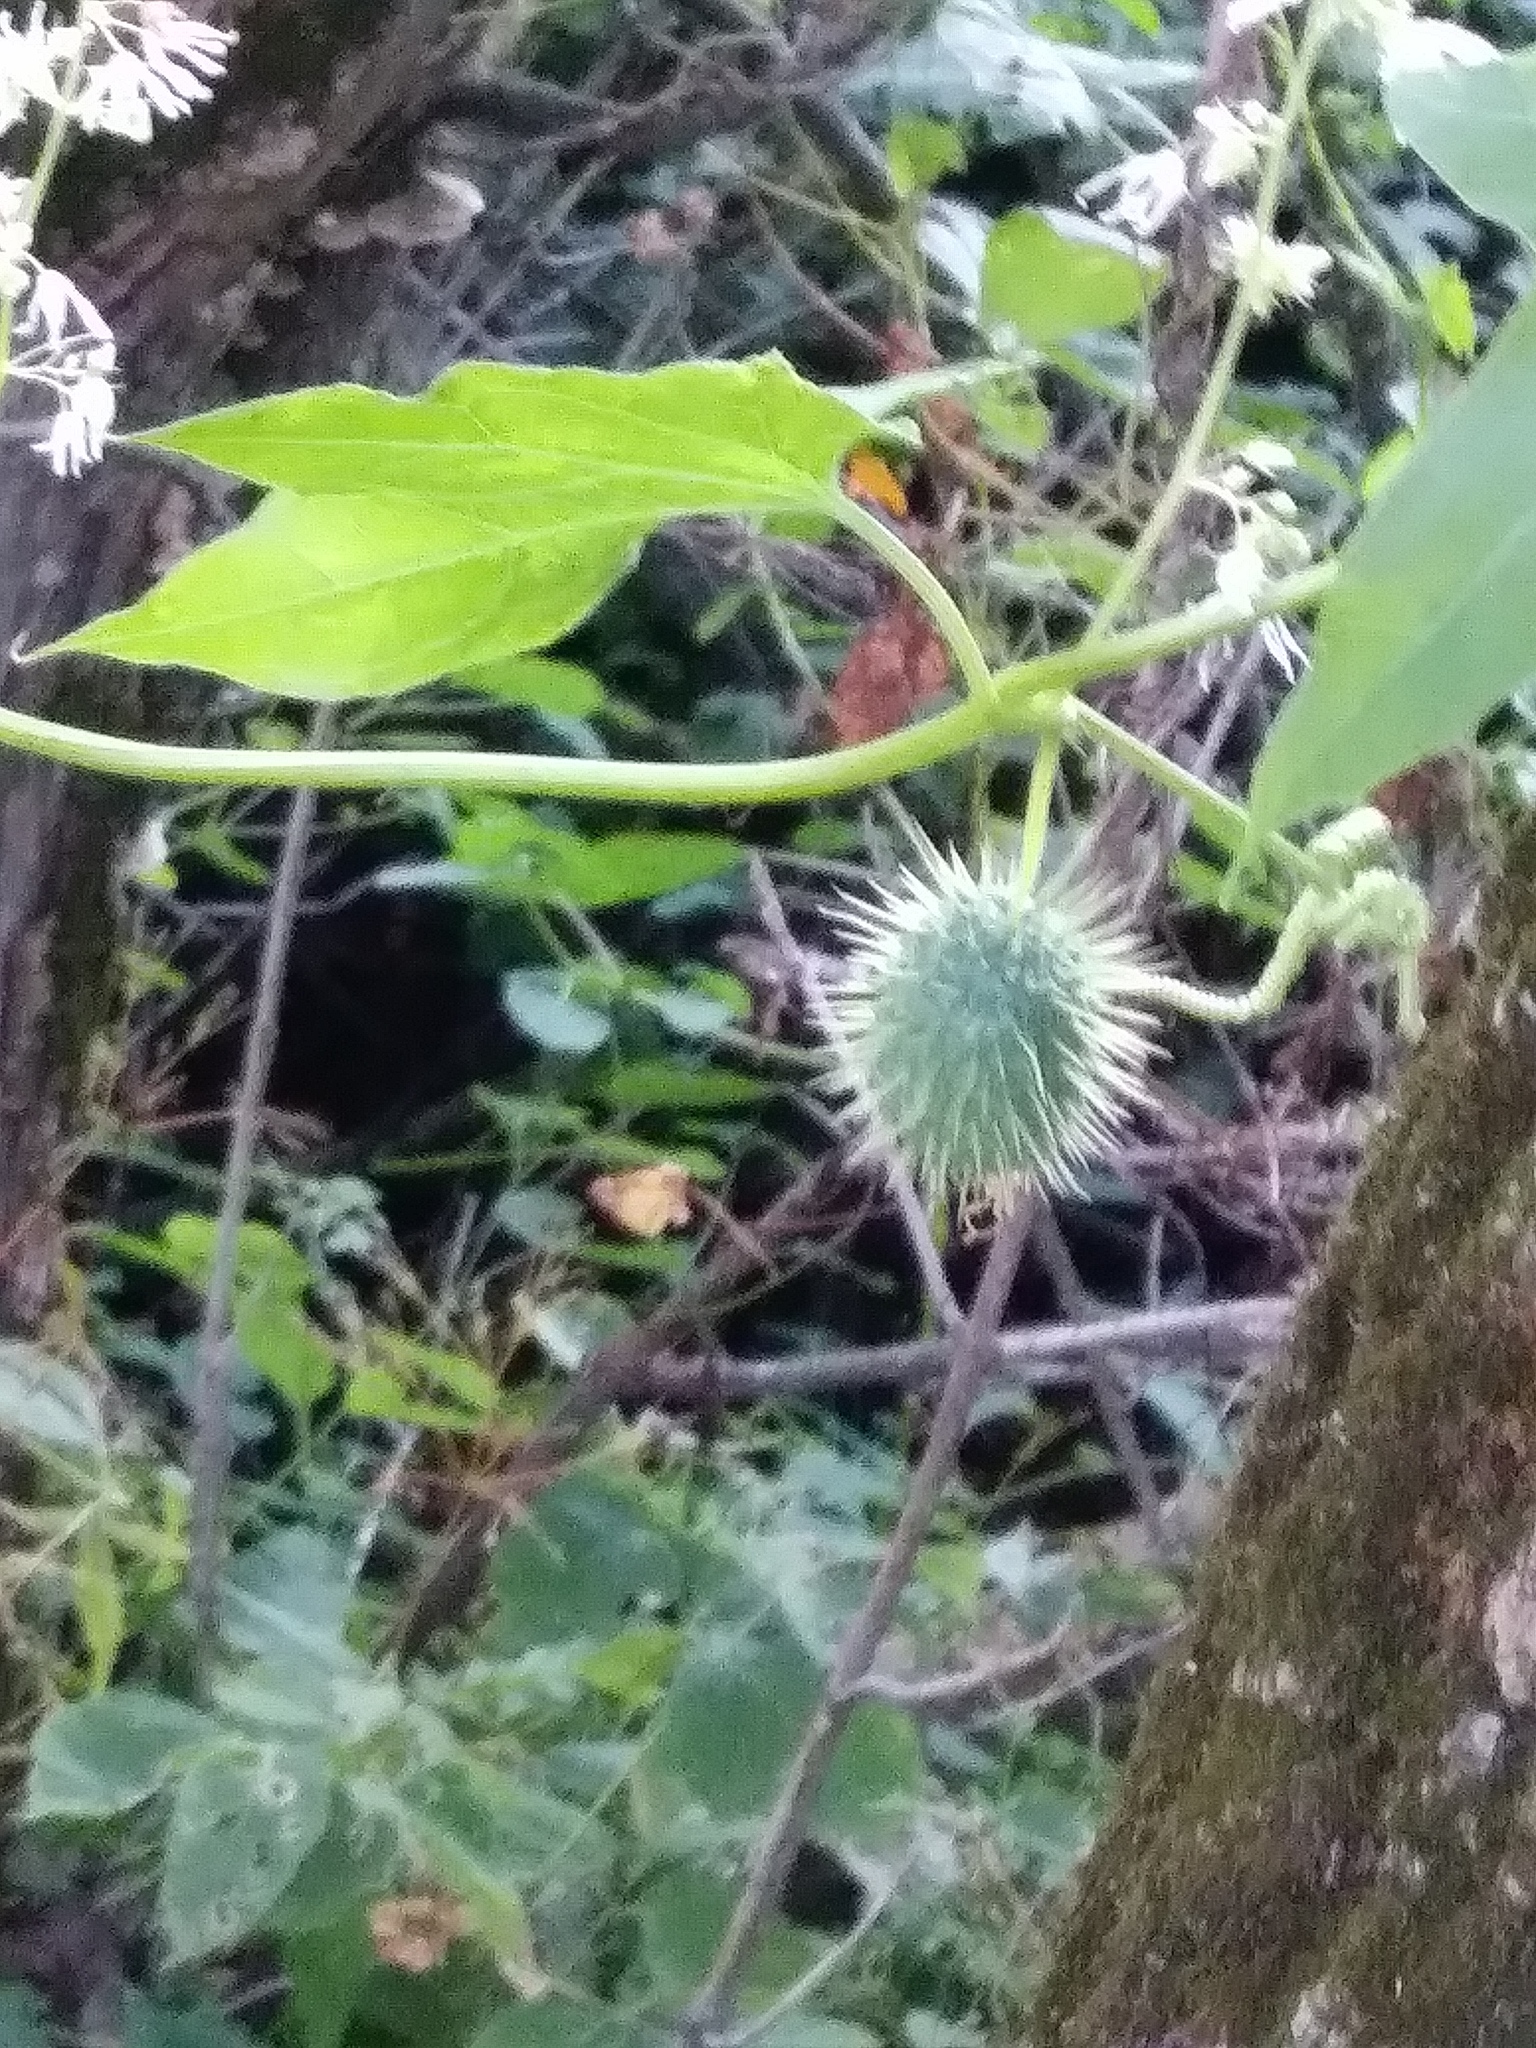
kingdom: Plantae
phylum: Tracheophyta
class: Magnoliopsida
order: Cucurbitales
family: Cucurbitaceae
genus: Echinocystis
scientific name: Echinocystis lobata
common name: Wild cucumber
